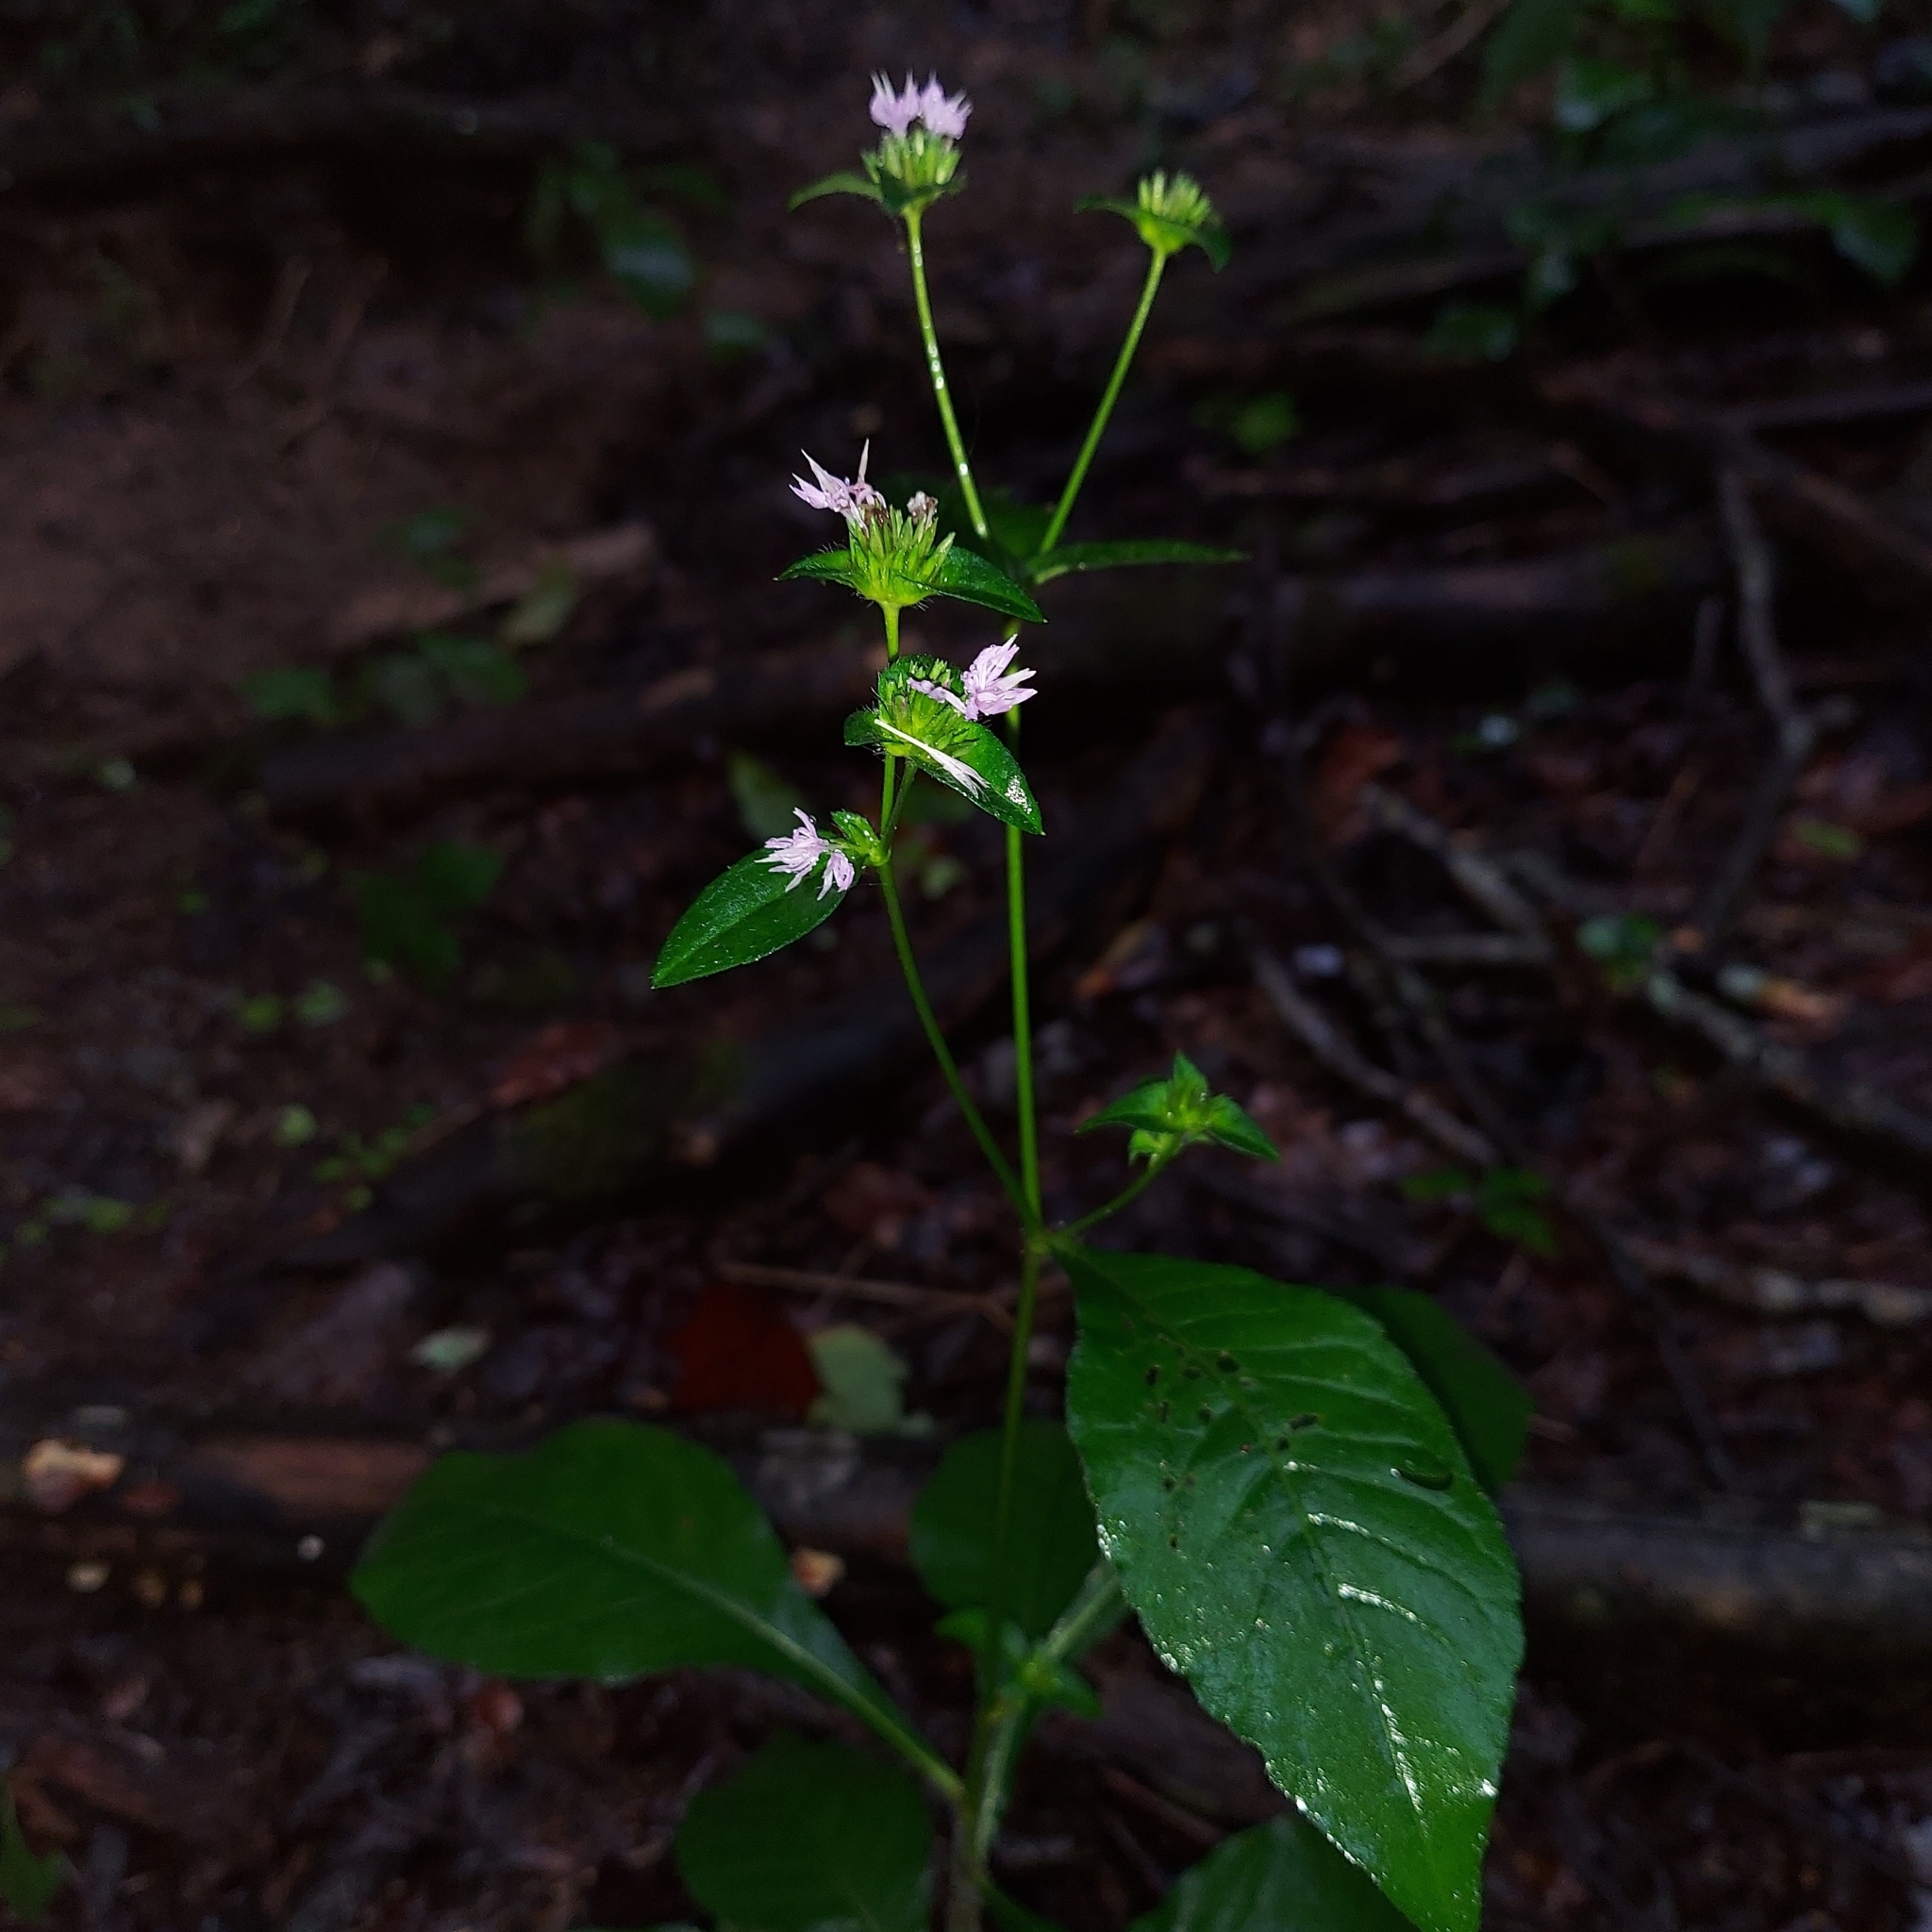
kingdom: Plantae
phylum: Tracheophyta
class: Magnoliopsida
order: Asterales
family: Asteraceae
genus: Elephantopus
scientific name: Elephantopus carolinianus
